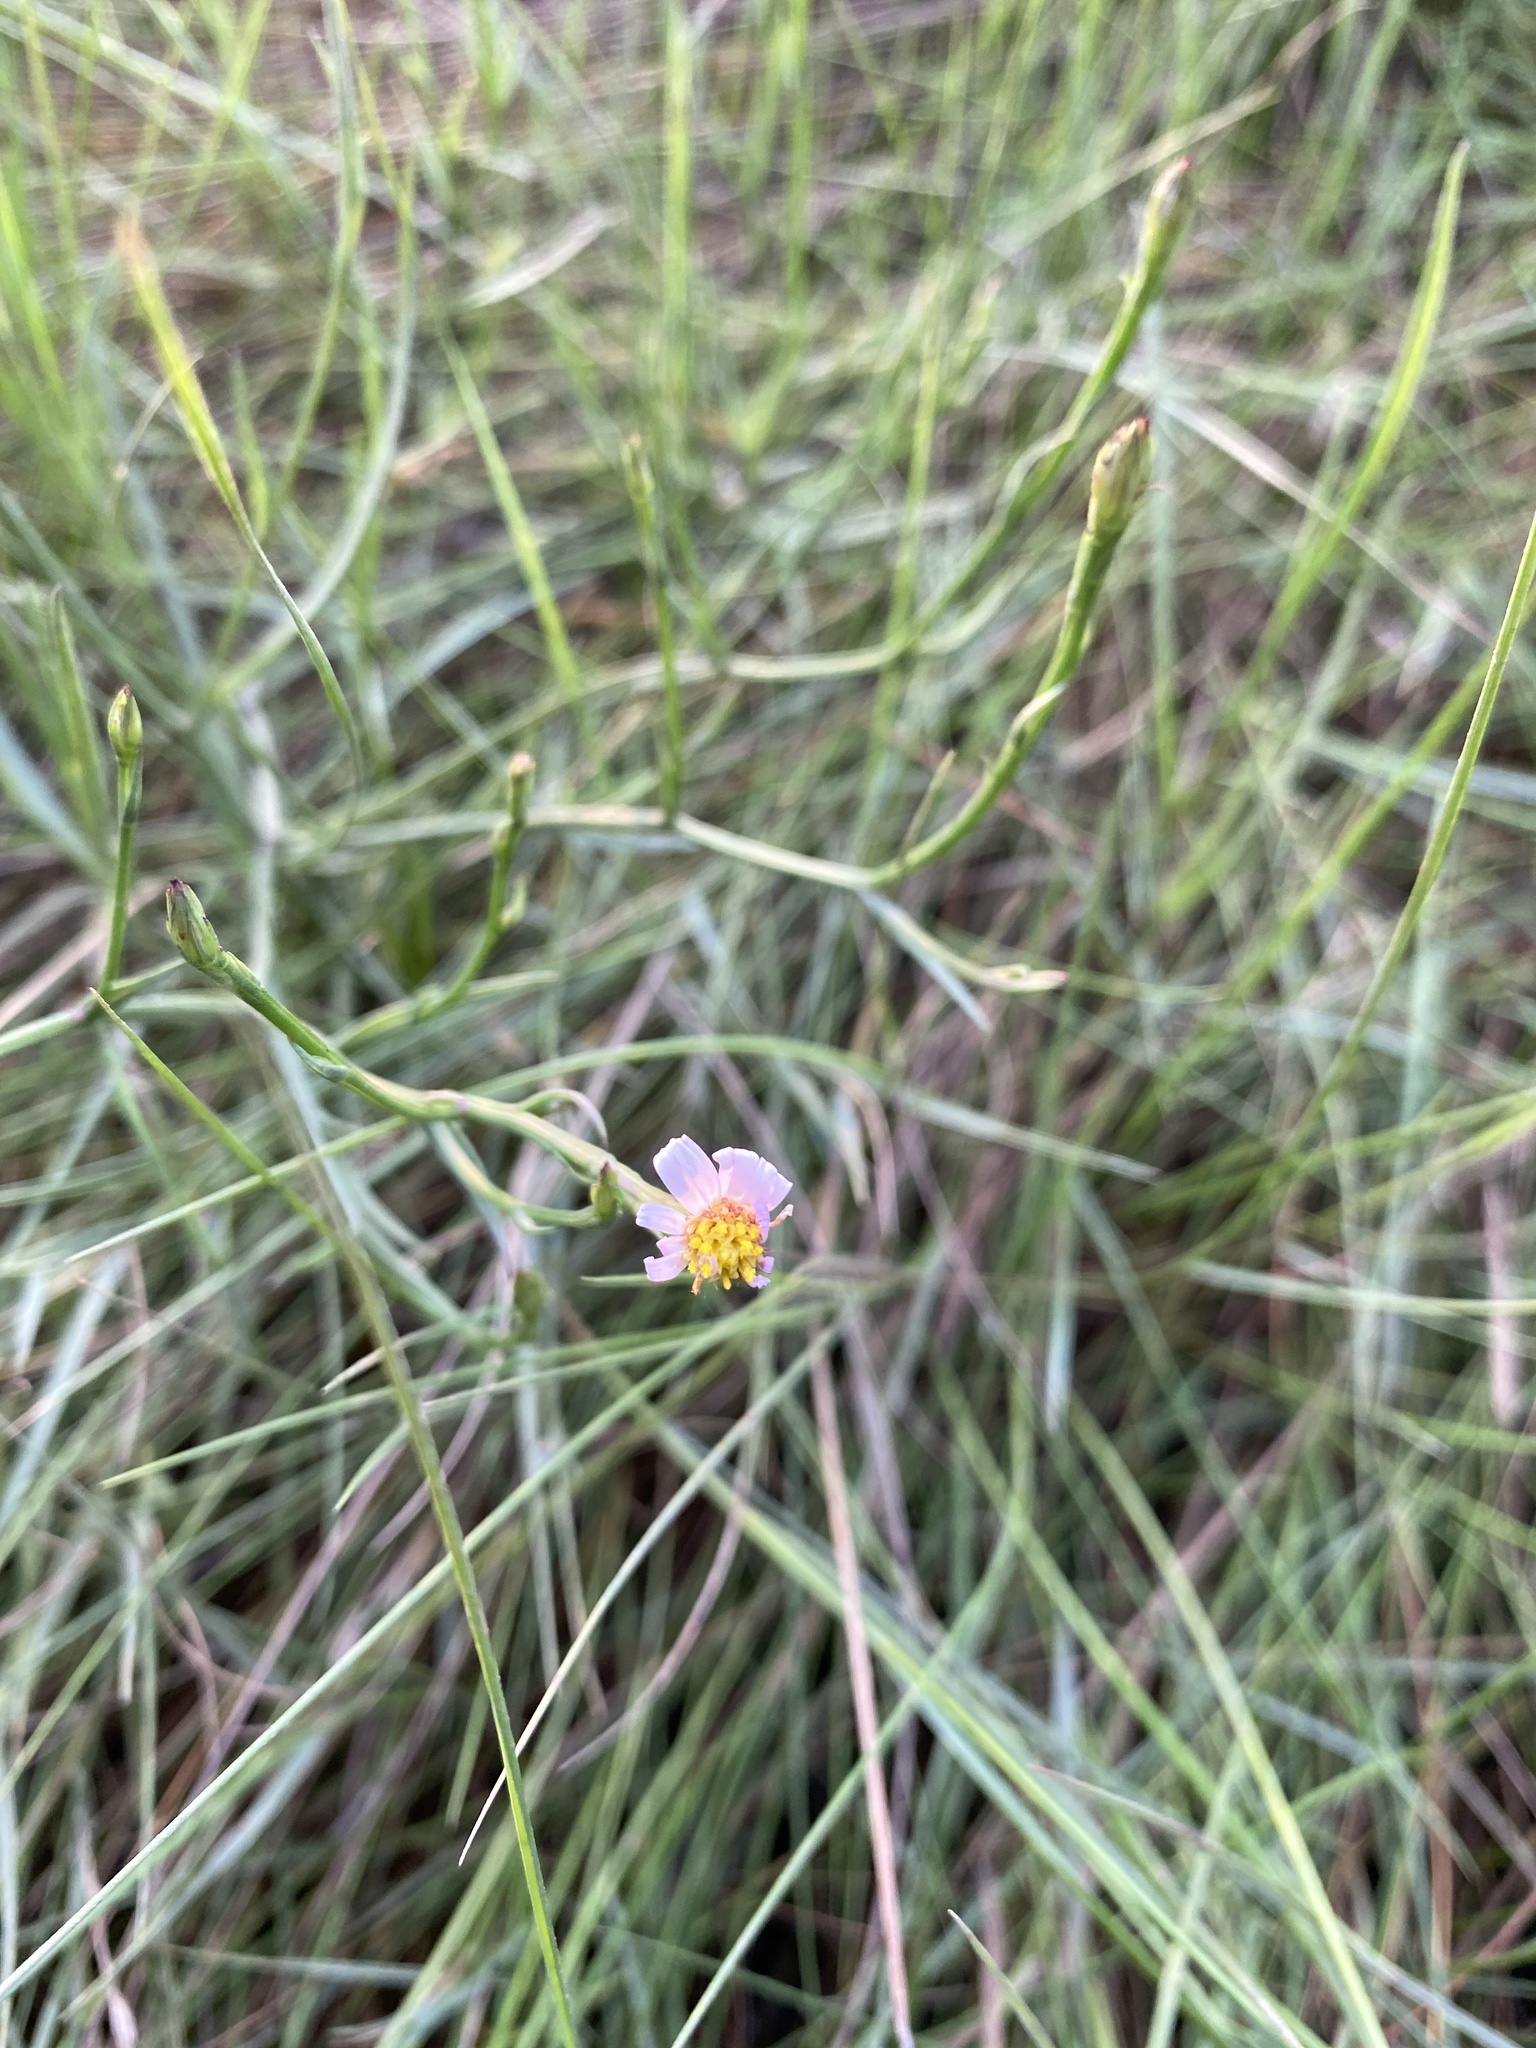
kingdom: Plantae
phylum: Tracheophyta
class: Magnoliopsida
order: Asterales
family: Asteraceae
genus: Symphyotrichum
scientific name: Symphyotrichum subulatum
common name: Annual saltmarsh aster
